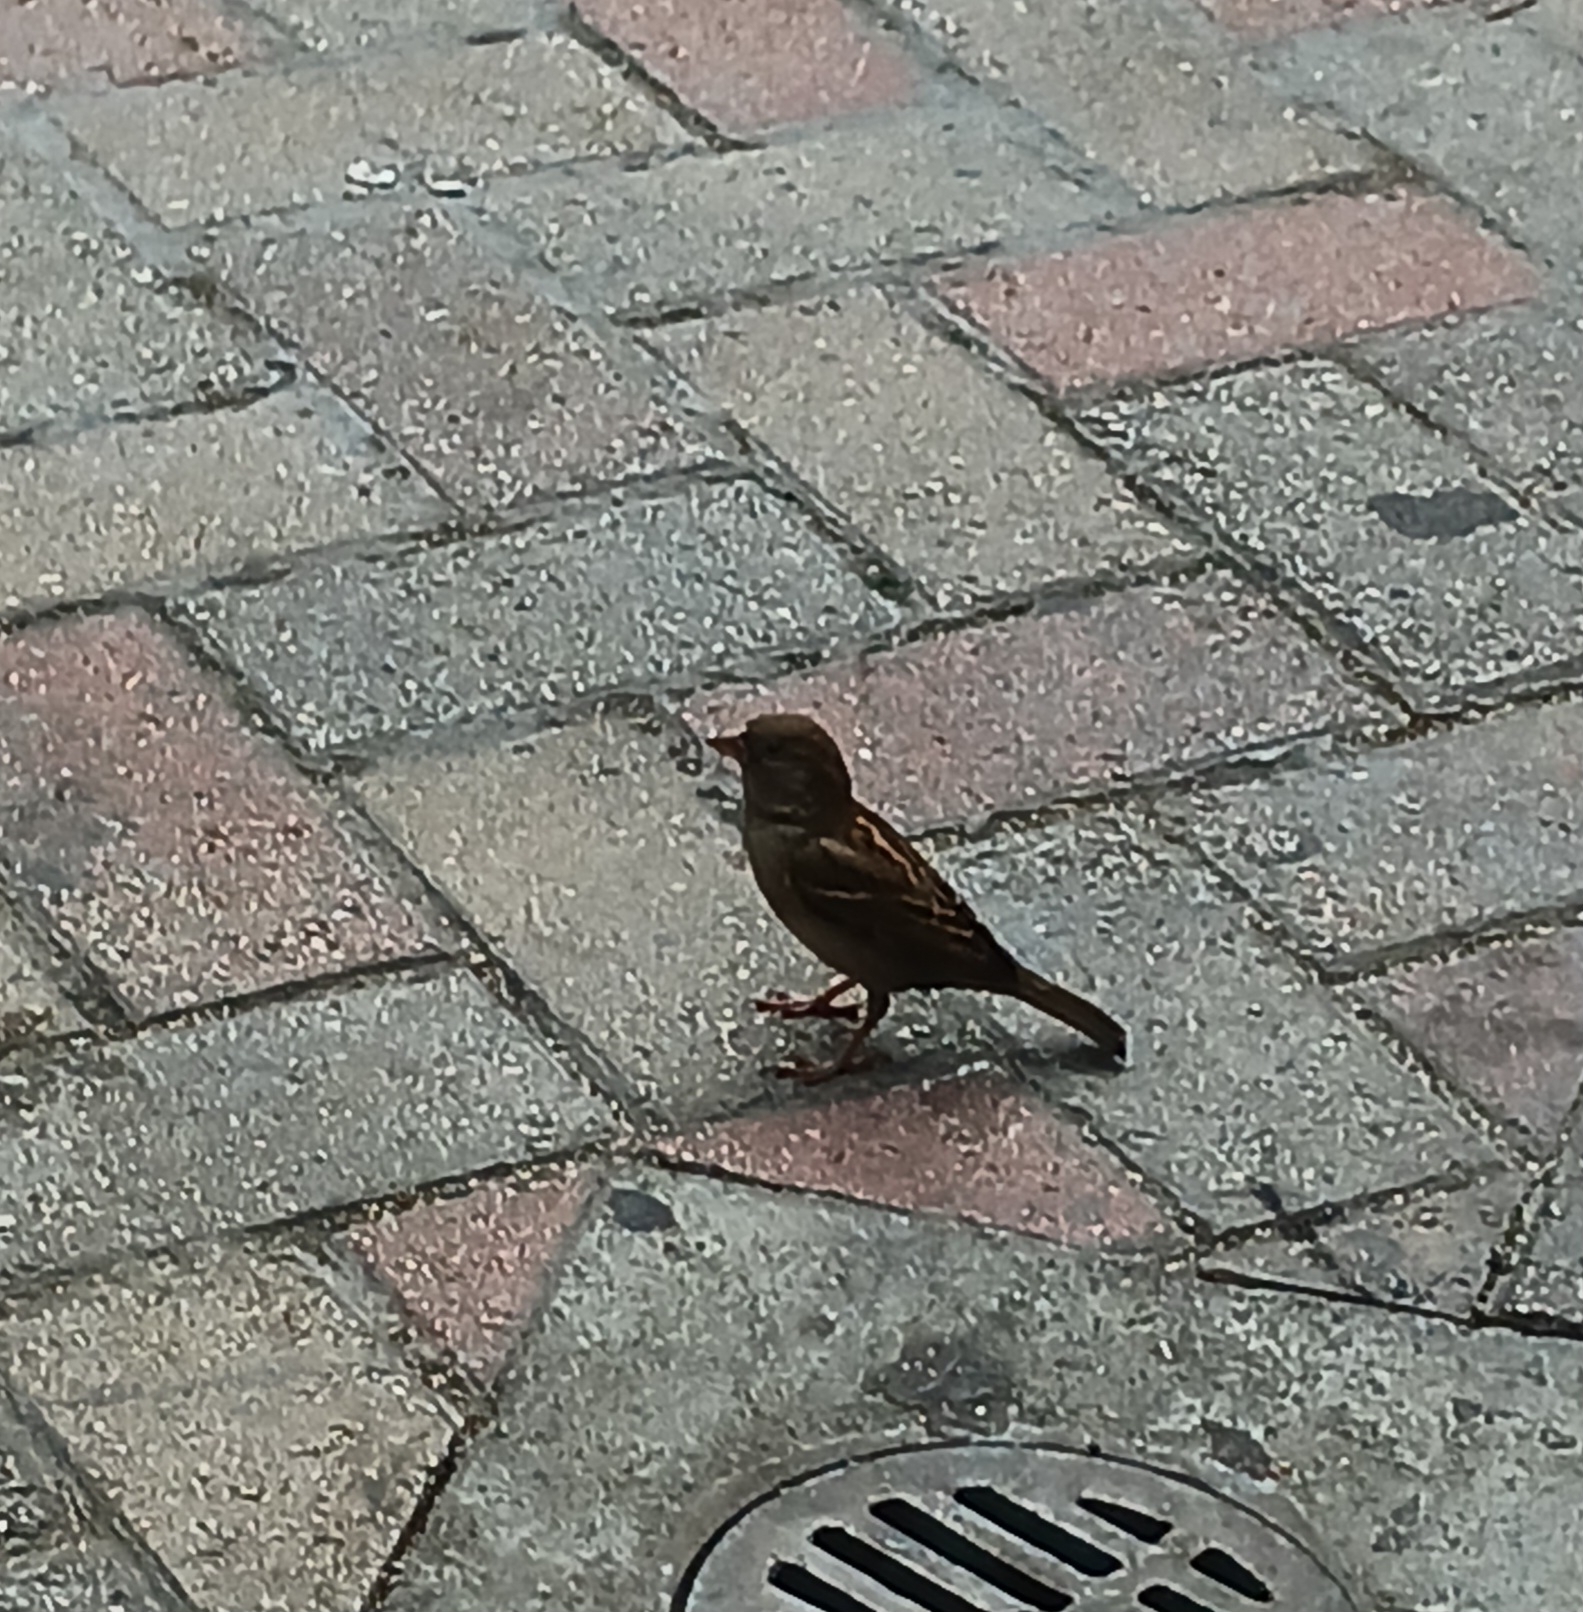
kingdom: Animalia
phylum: Chordata
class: Aves
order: Passeriformes
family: Passeridae
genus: Passer
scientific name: Passer domesticus
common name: House sparrow
